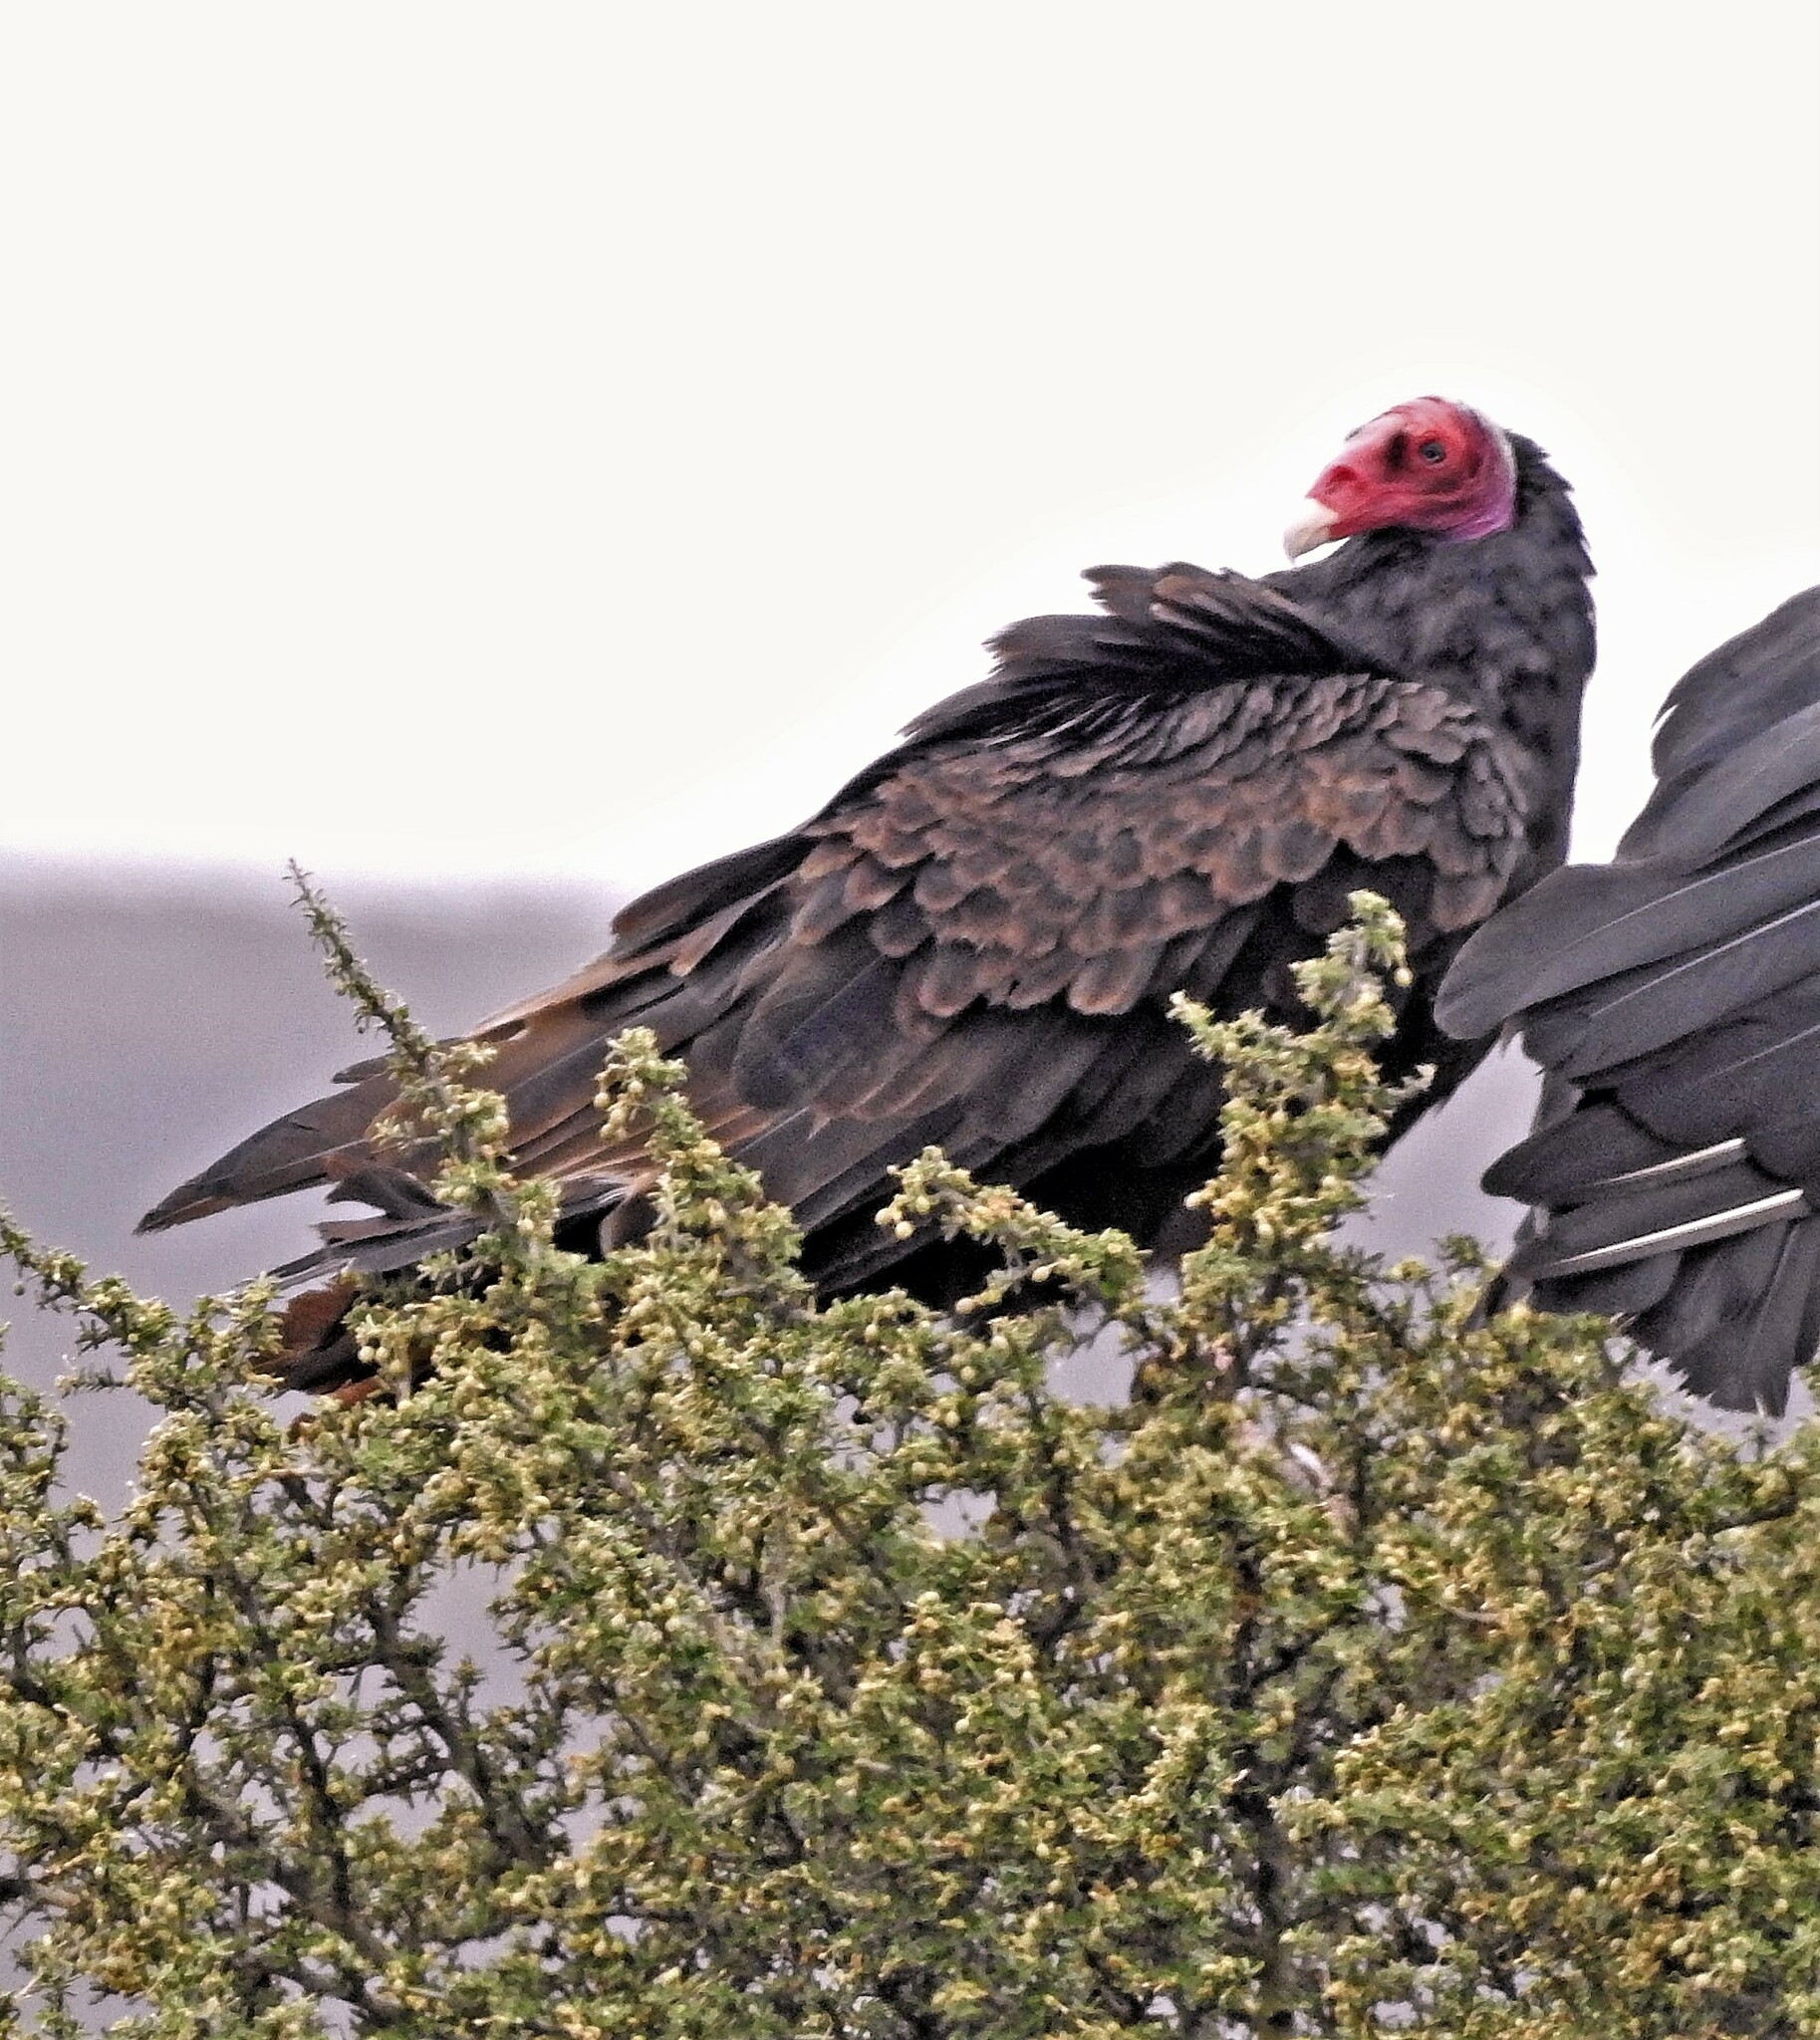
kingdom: Animalia
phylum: Chordata
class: Aves
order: Accipitriformes
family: Cathartidae
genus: Cathartes
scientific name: Cathartes aura
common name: Turkey vulture
